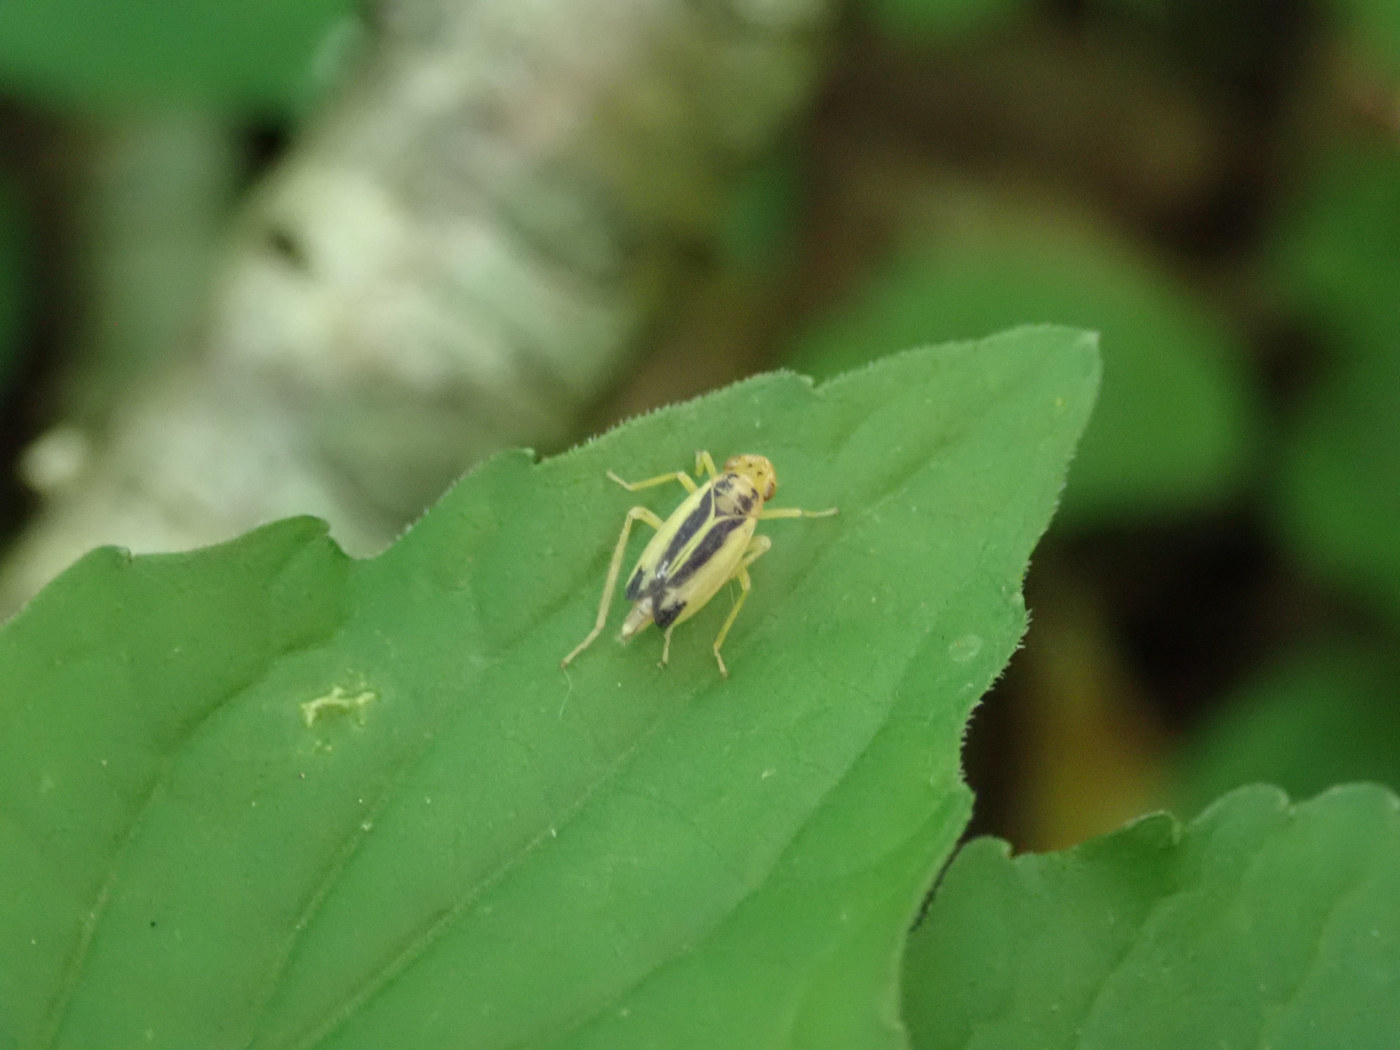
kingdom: Animalia
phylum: Arthropoda
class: Insecta
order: Hemiptera
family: Cicadellidae
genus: Evacanthus
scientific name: Evacanthus bellaustralis
